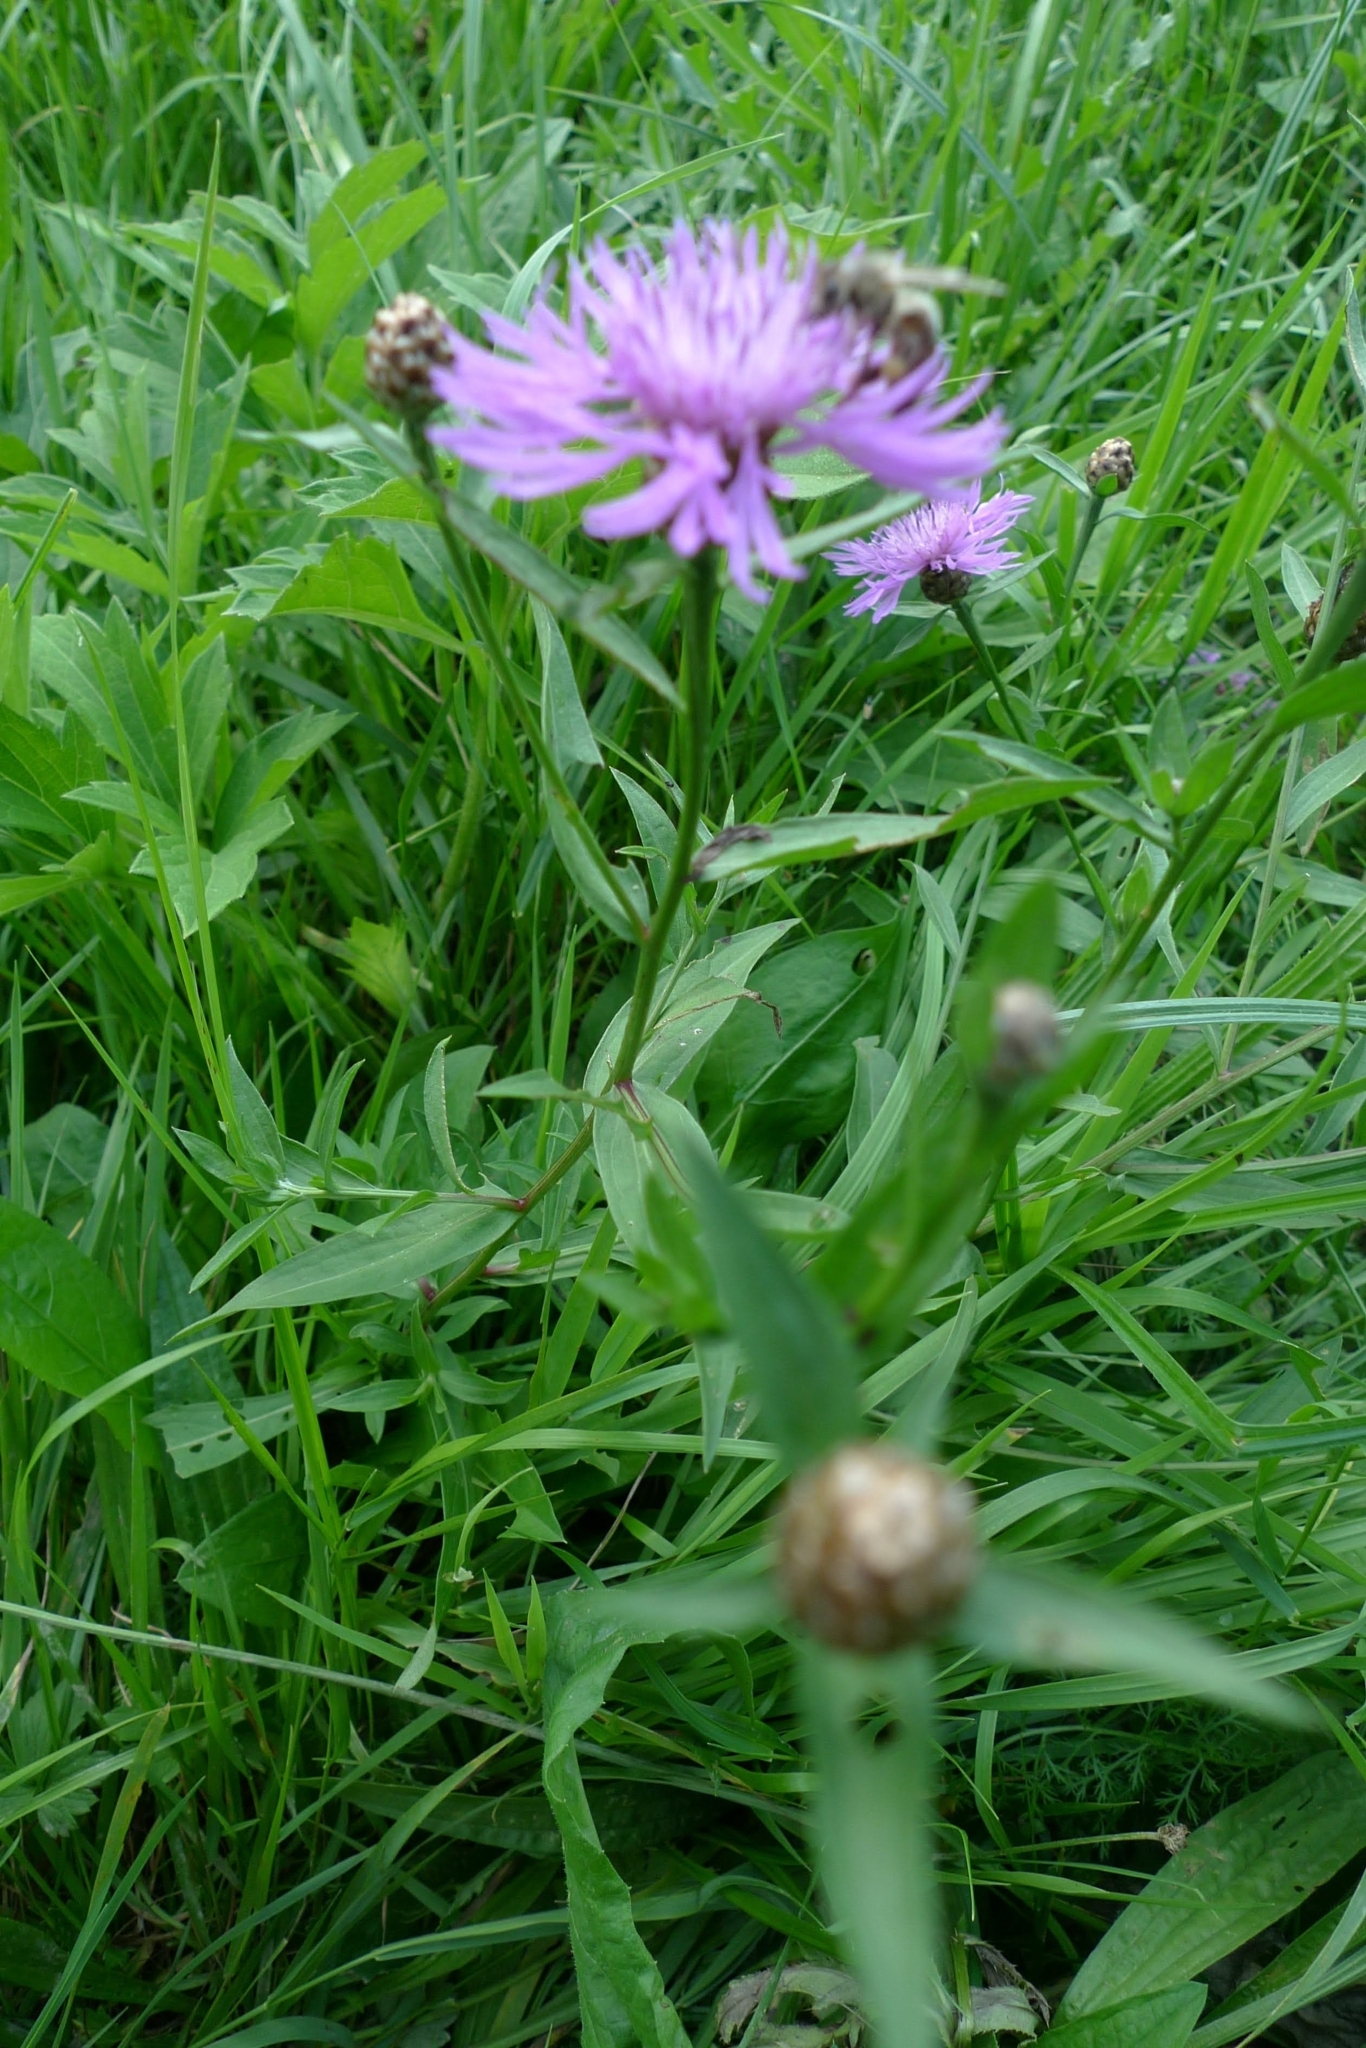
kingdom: Plantae
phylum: Tracheophyta
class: Magnoliopsida
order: Asterales
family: Asteraceae
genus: Centaurea
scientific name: Centaurea jacea
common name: Brown knapweed
